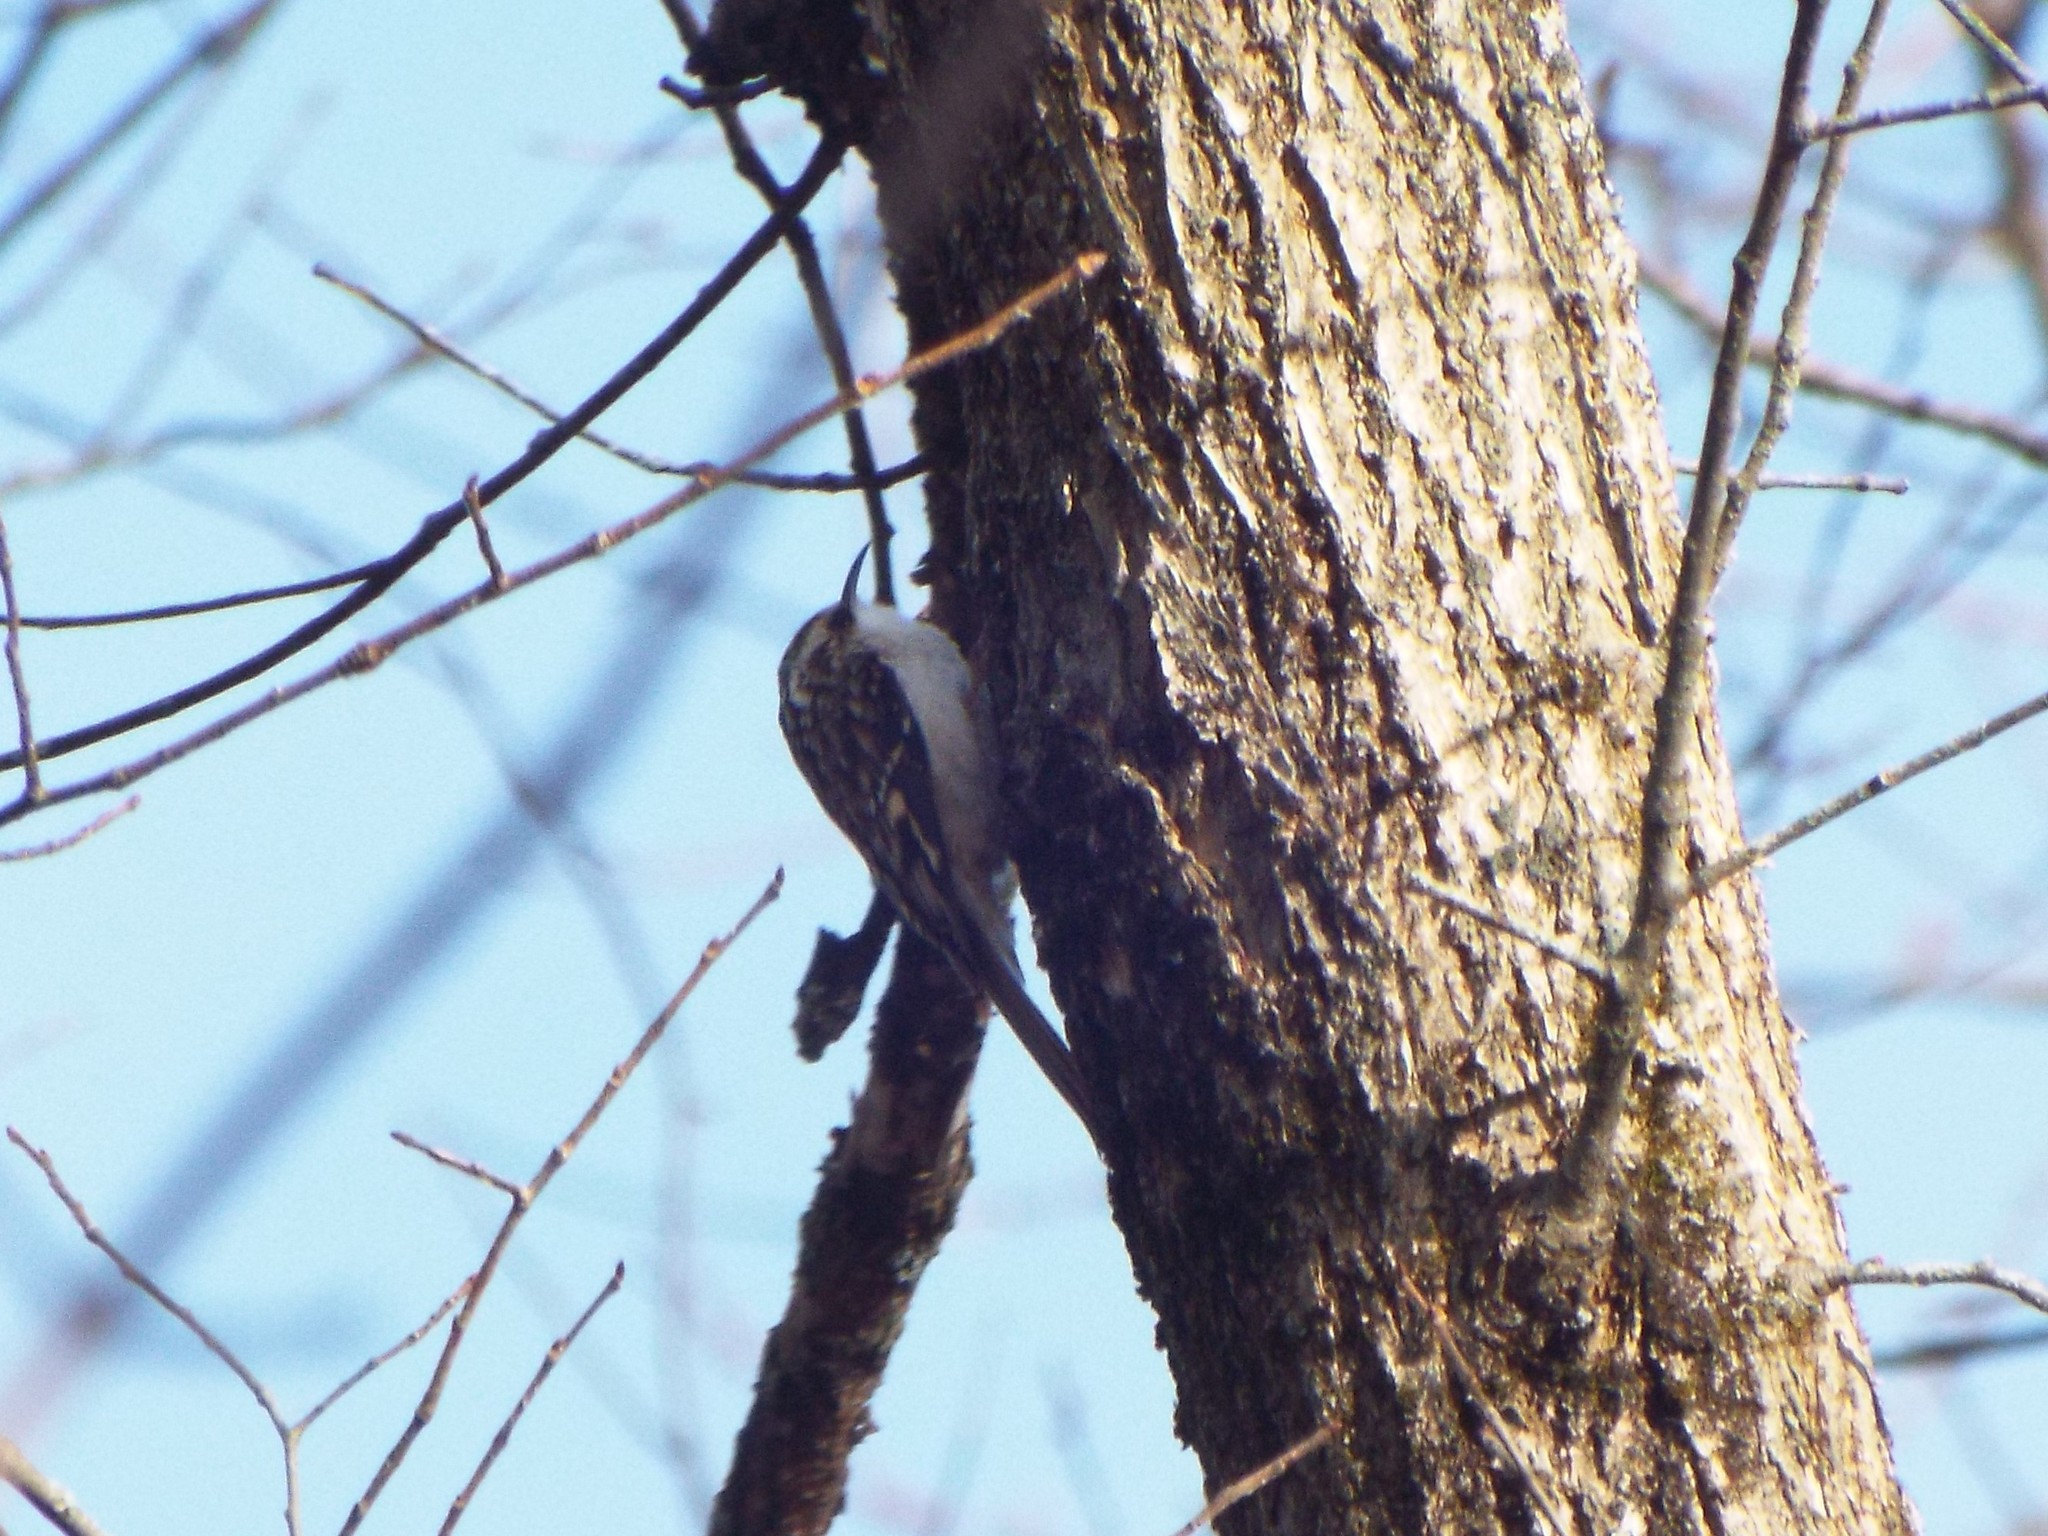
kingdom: Animalia
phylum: Chordata
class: Aves
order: Passeriformes
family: Certhiidae
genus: Certhia
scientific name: Certhia americana
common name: Brown creeper
